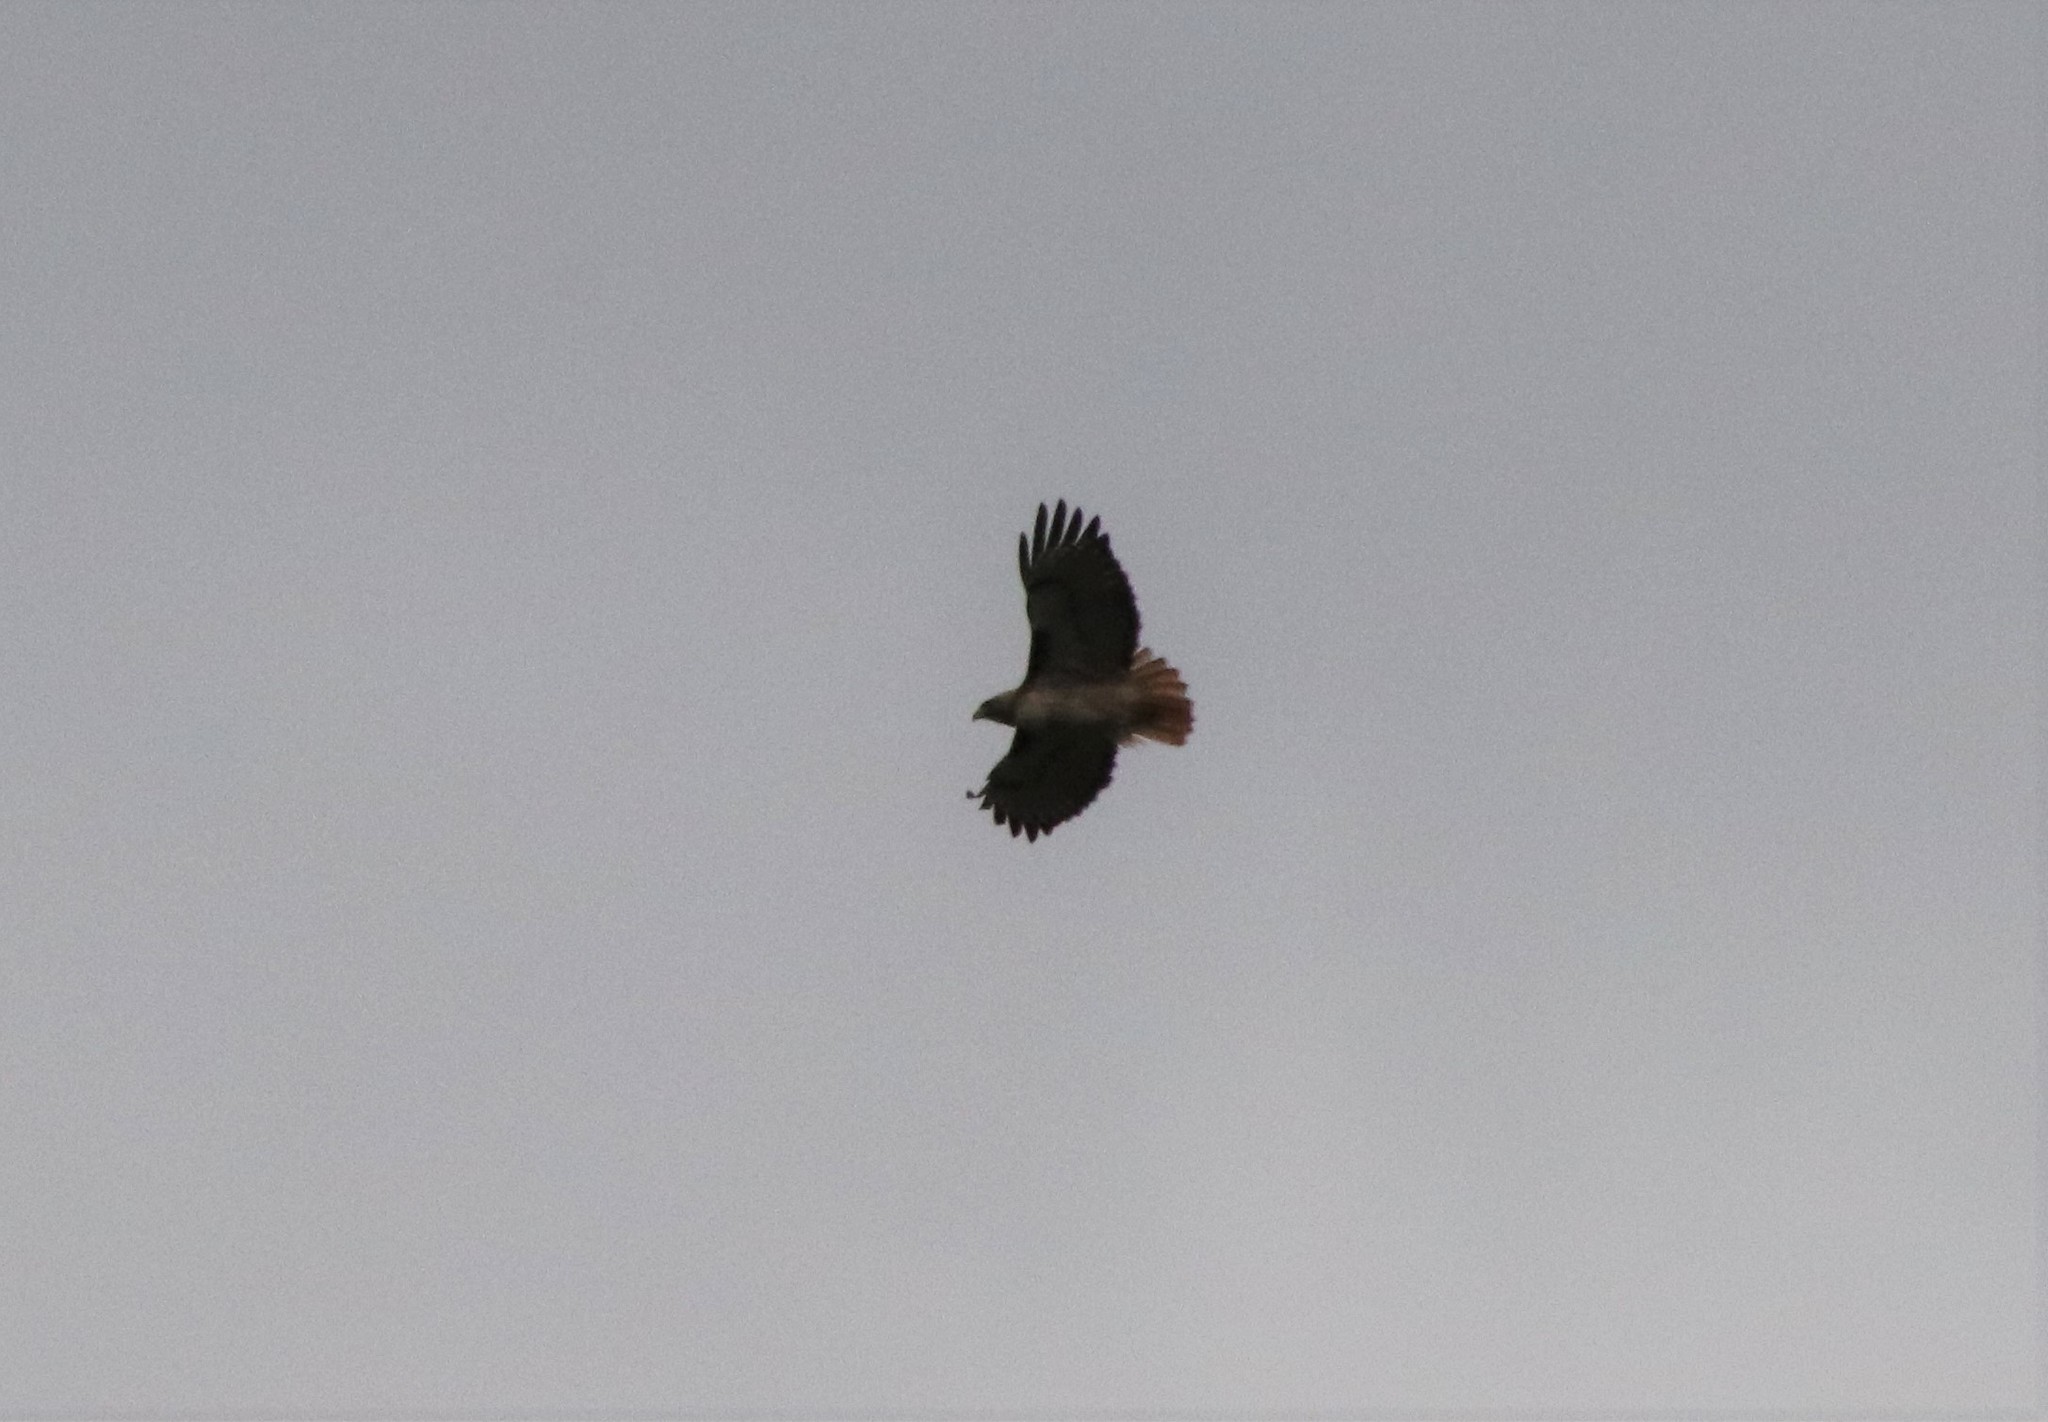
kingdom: Animalia
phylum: Chordata
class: Aves
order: Accipitriformes
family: Accipitridae
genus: Buteo
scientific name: Buteo jamaicensis
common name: Red-tailed hawk
